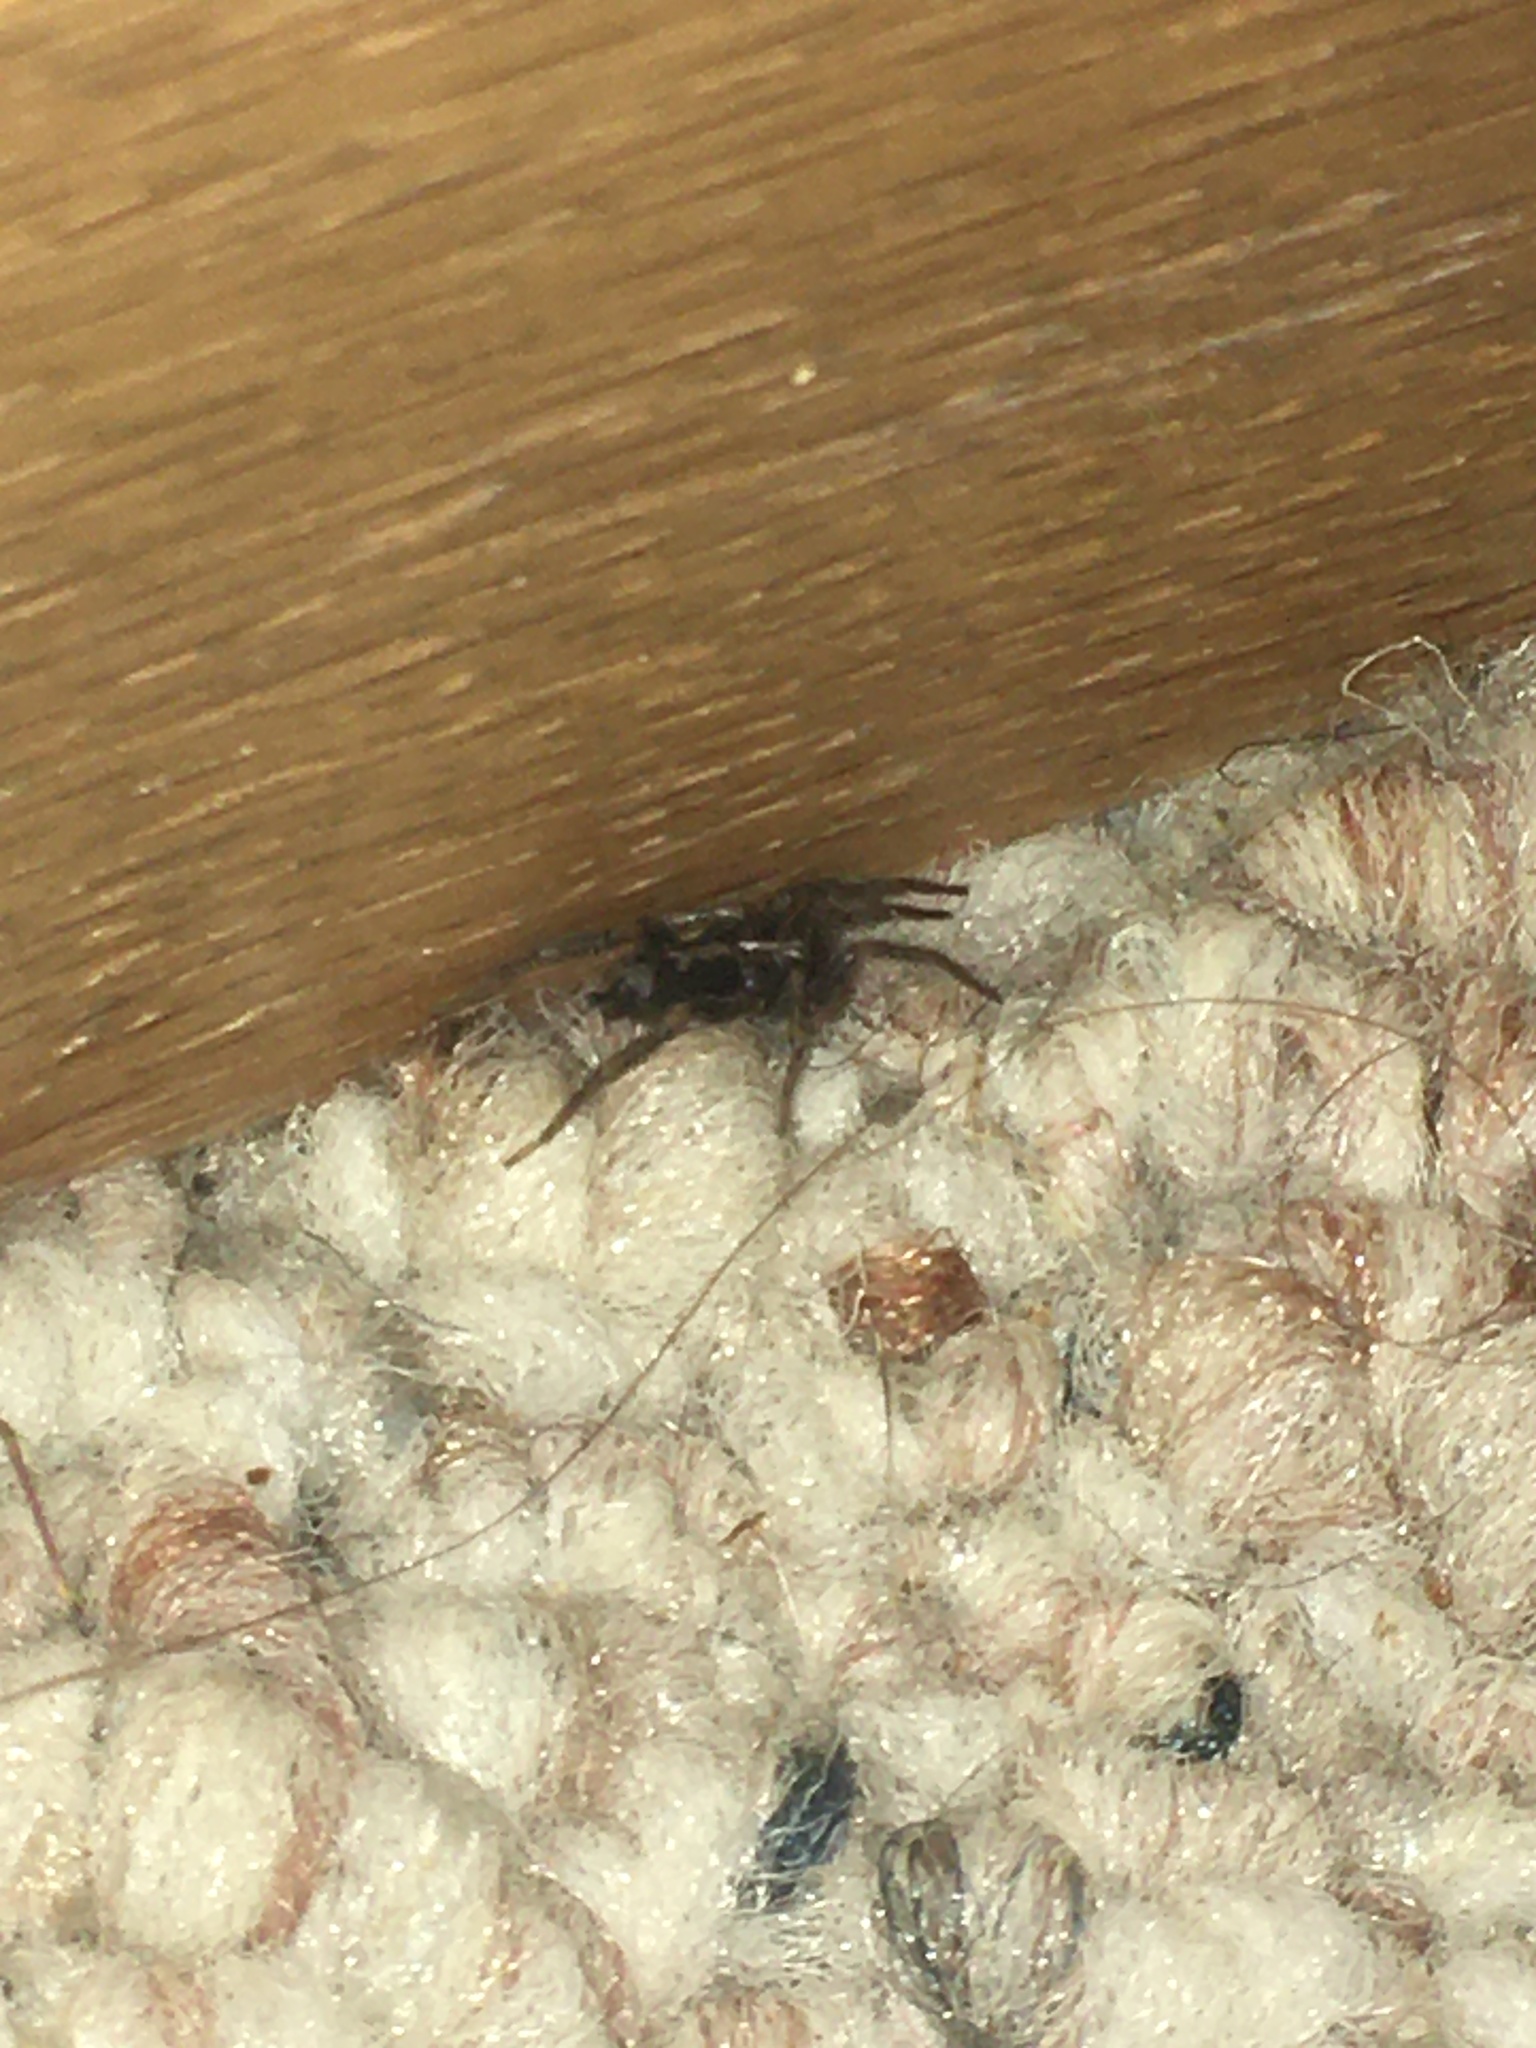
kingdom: Animalia
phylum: Arthropoda
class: Arachnida
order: Araneae
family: Gnaphosidae
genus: Herpyllus
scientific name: Herpyllus ecclesiasticus
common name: Eastern parson spider
